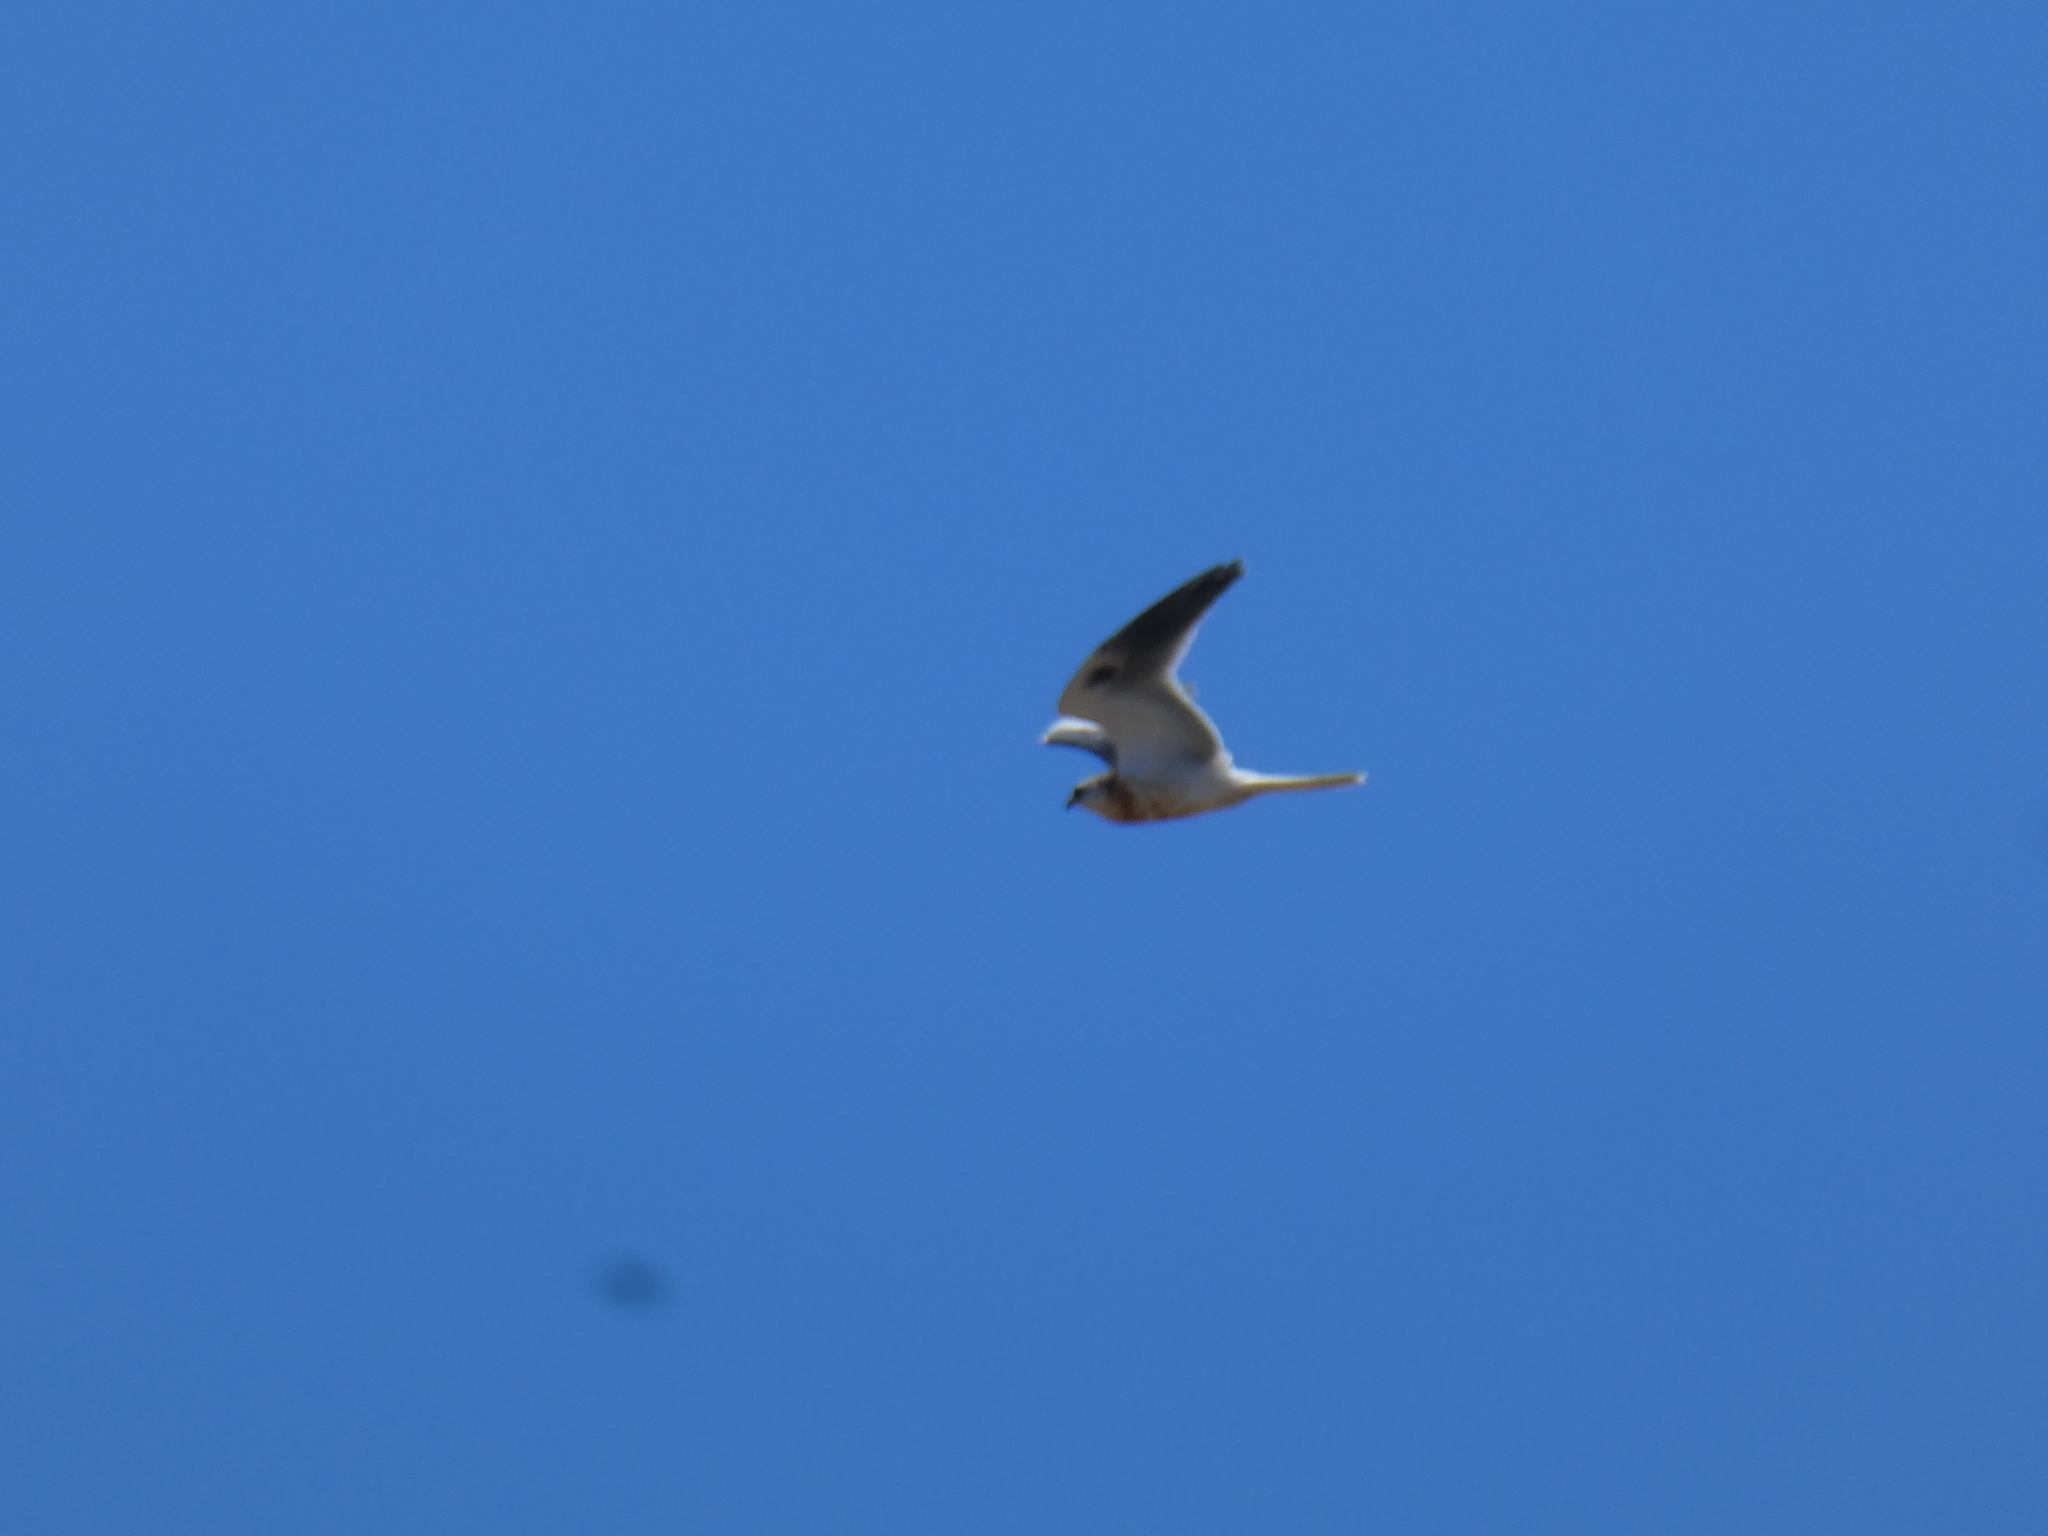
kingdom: Animalia
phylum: Chordata
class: Aves
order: Accipitriformes
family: Accipitridae
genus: Elanus
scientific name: Elanus leucurus
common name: White-tailed kite
